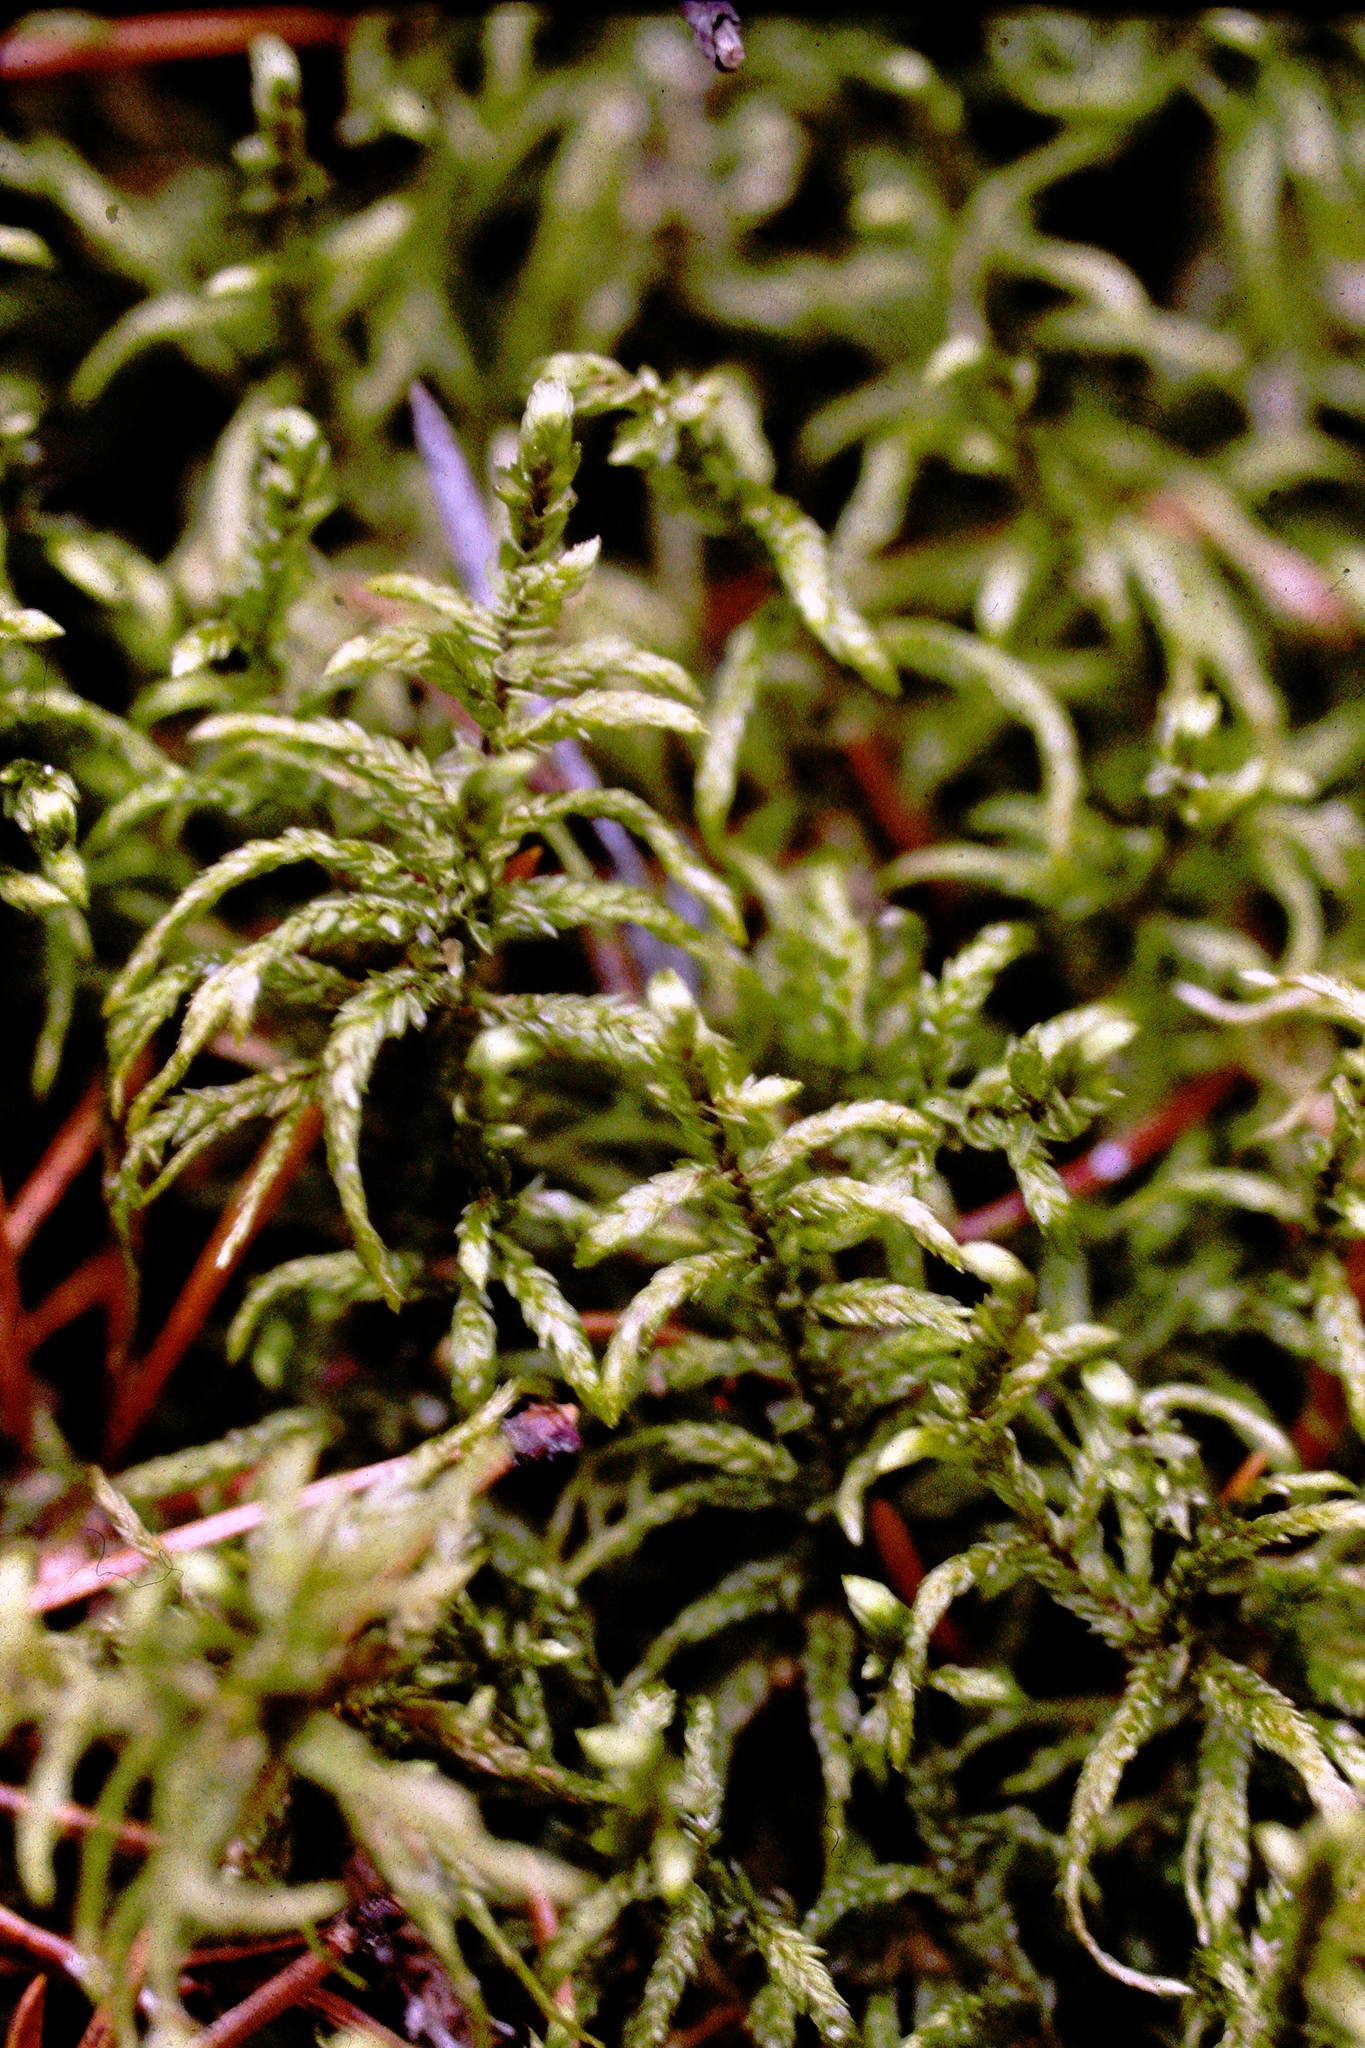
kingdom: Plantae
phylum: Bryophyta
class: Bryopsida
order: Hypnales
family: Hylocomiaceae
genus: Pleurozium
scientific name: Pleurozium schreberi
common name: Red-stemmed feather moss
